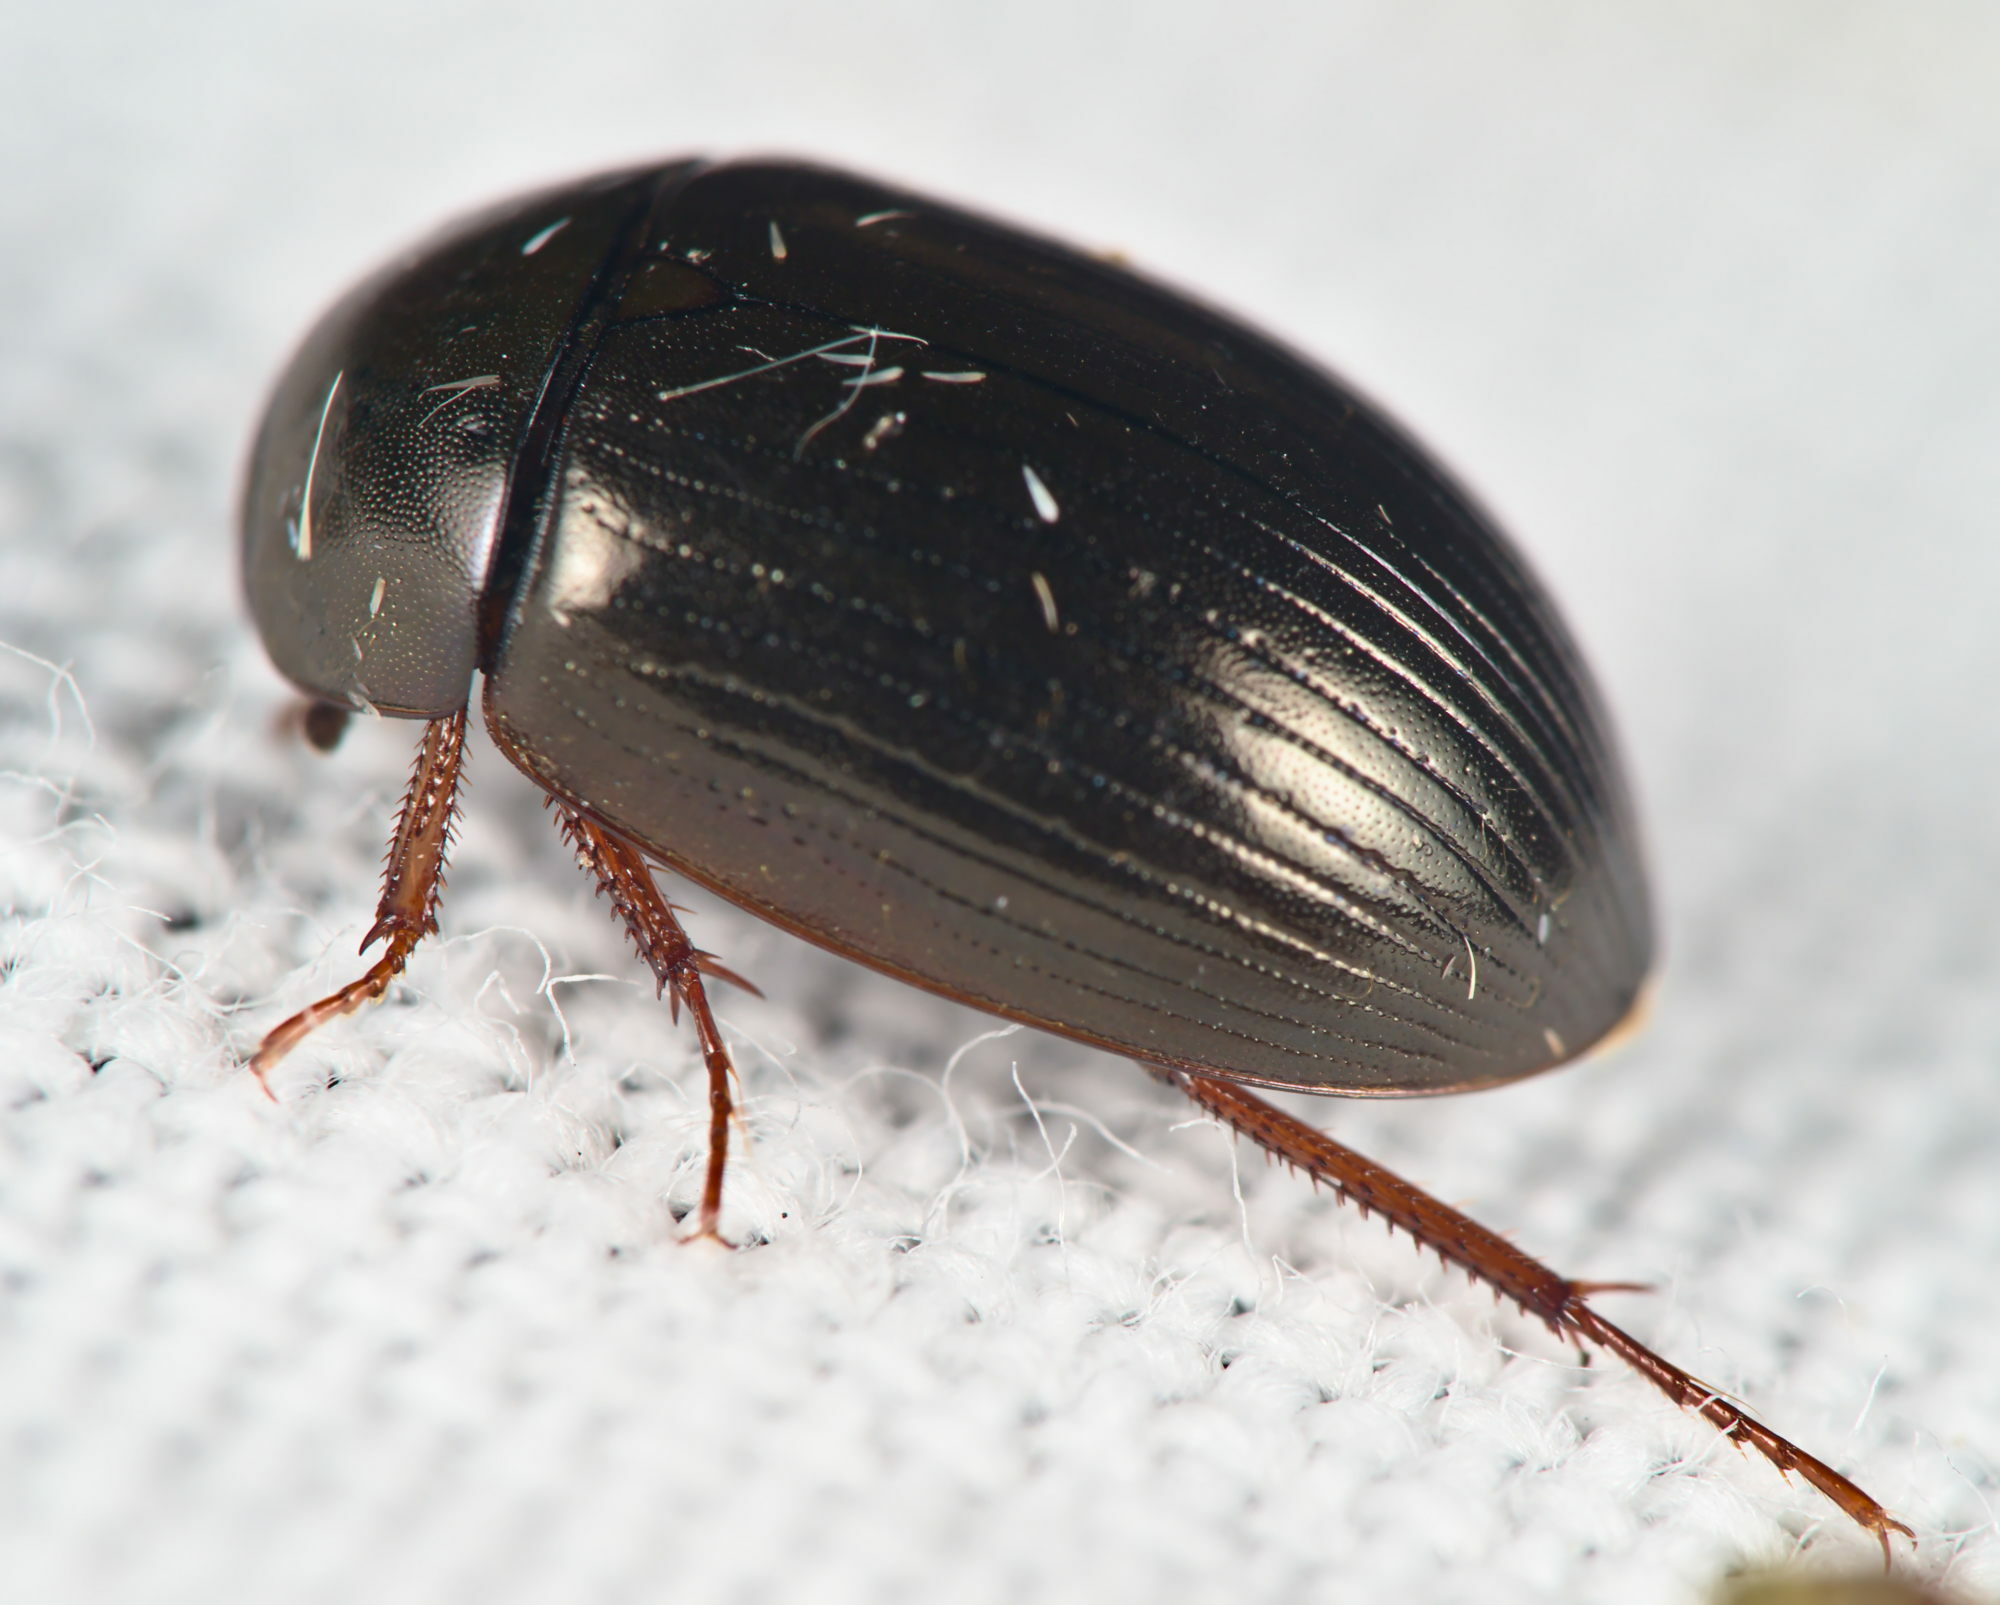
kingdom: Animalia
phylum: Arthropoda
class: Insecta
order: Coleoptera
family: Hydrophilidae
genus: Hydrobius
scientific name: Hydrobius
